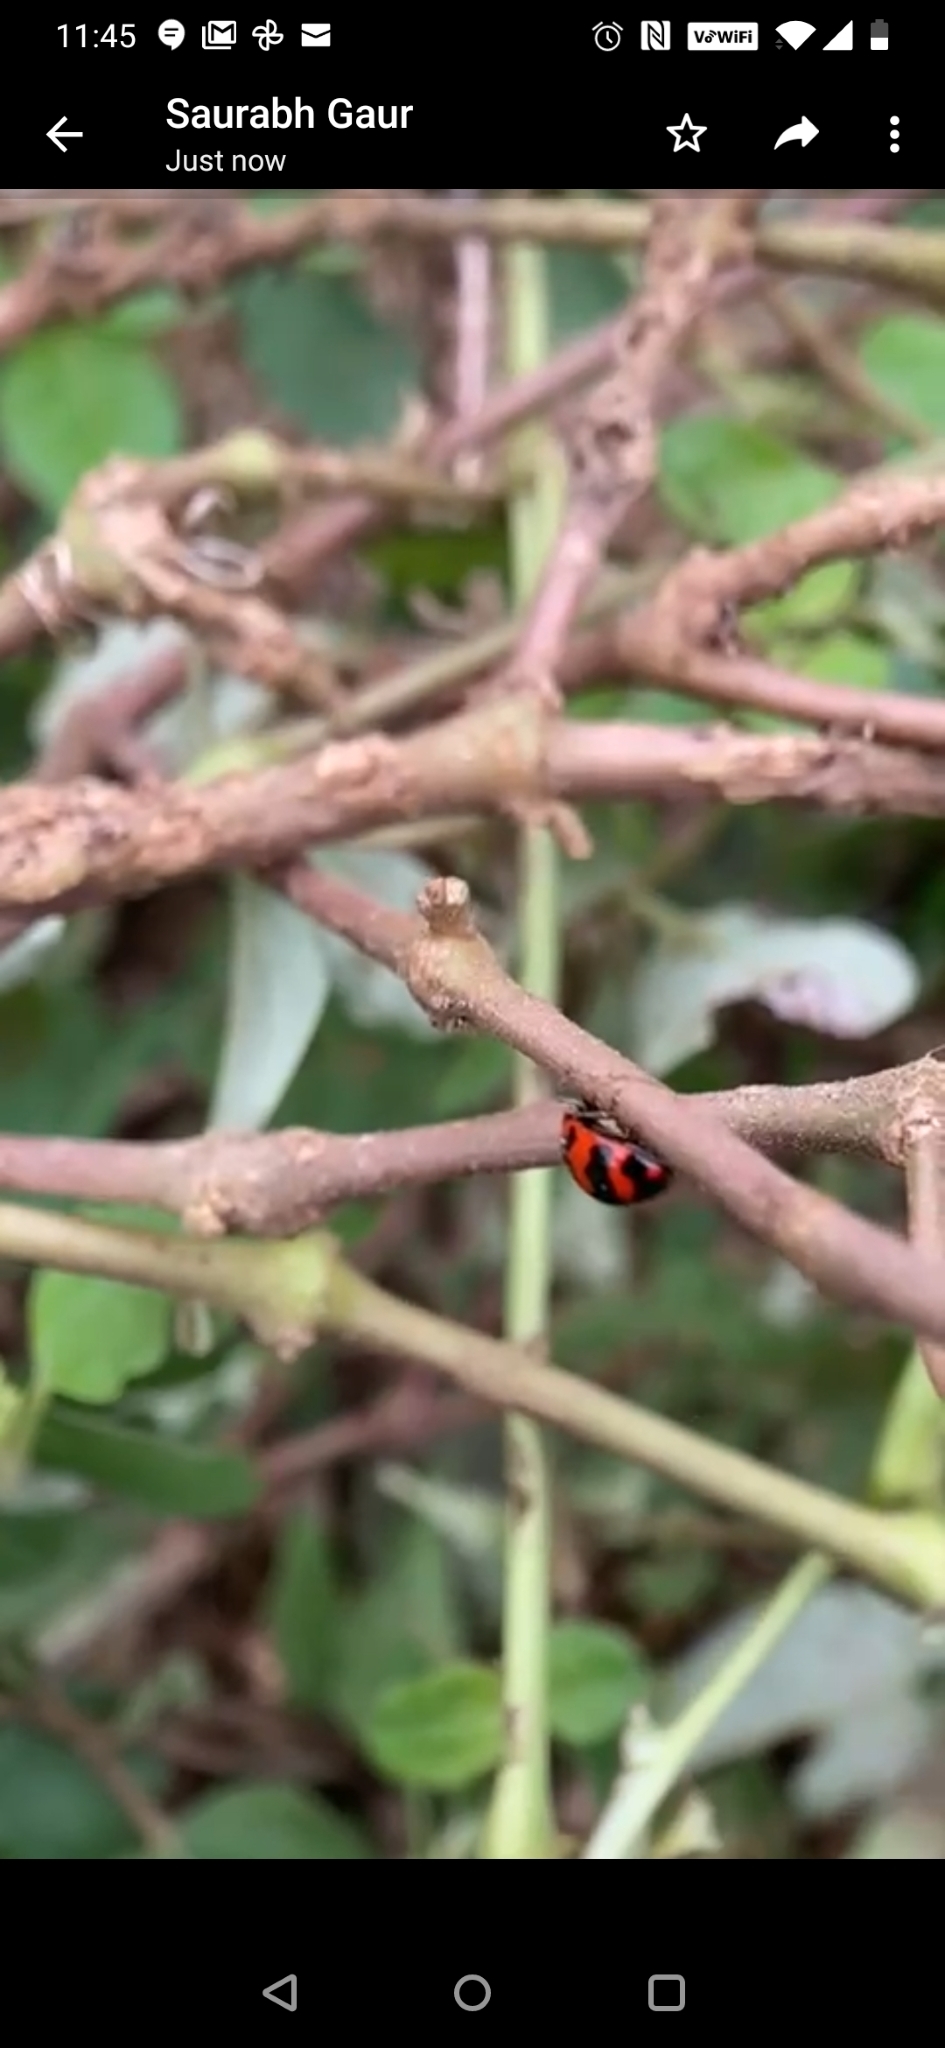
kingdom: Animalia
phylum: Arthropoda
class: Insecta
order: Coleoptera
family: Coccinellidae
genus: Coccinella
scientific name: Coccinella transversalis
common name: Transverse lady beetle
